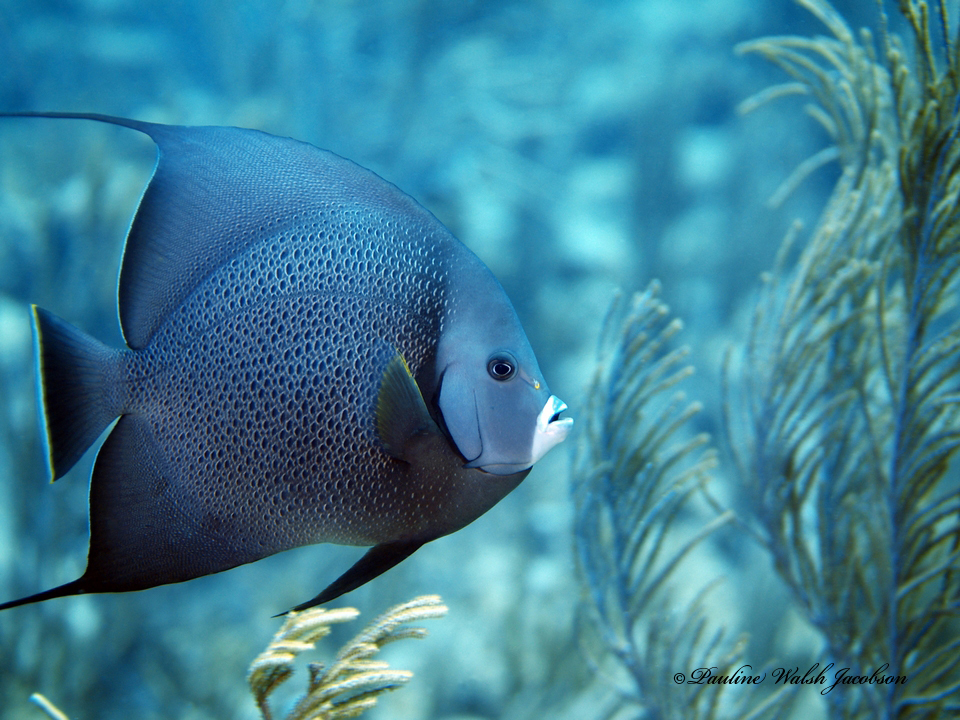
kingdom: Animalia
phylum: Chordata
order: Perciformes
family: Pomacanthidae
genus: Pomacanthus
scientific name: Pomacanthus arcuatus
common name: Gray angelfish
